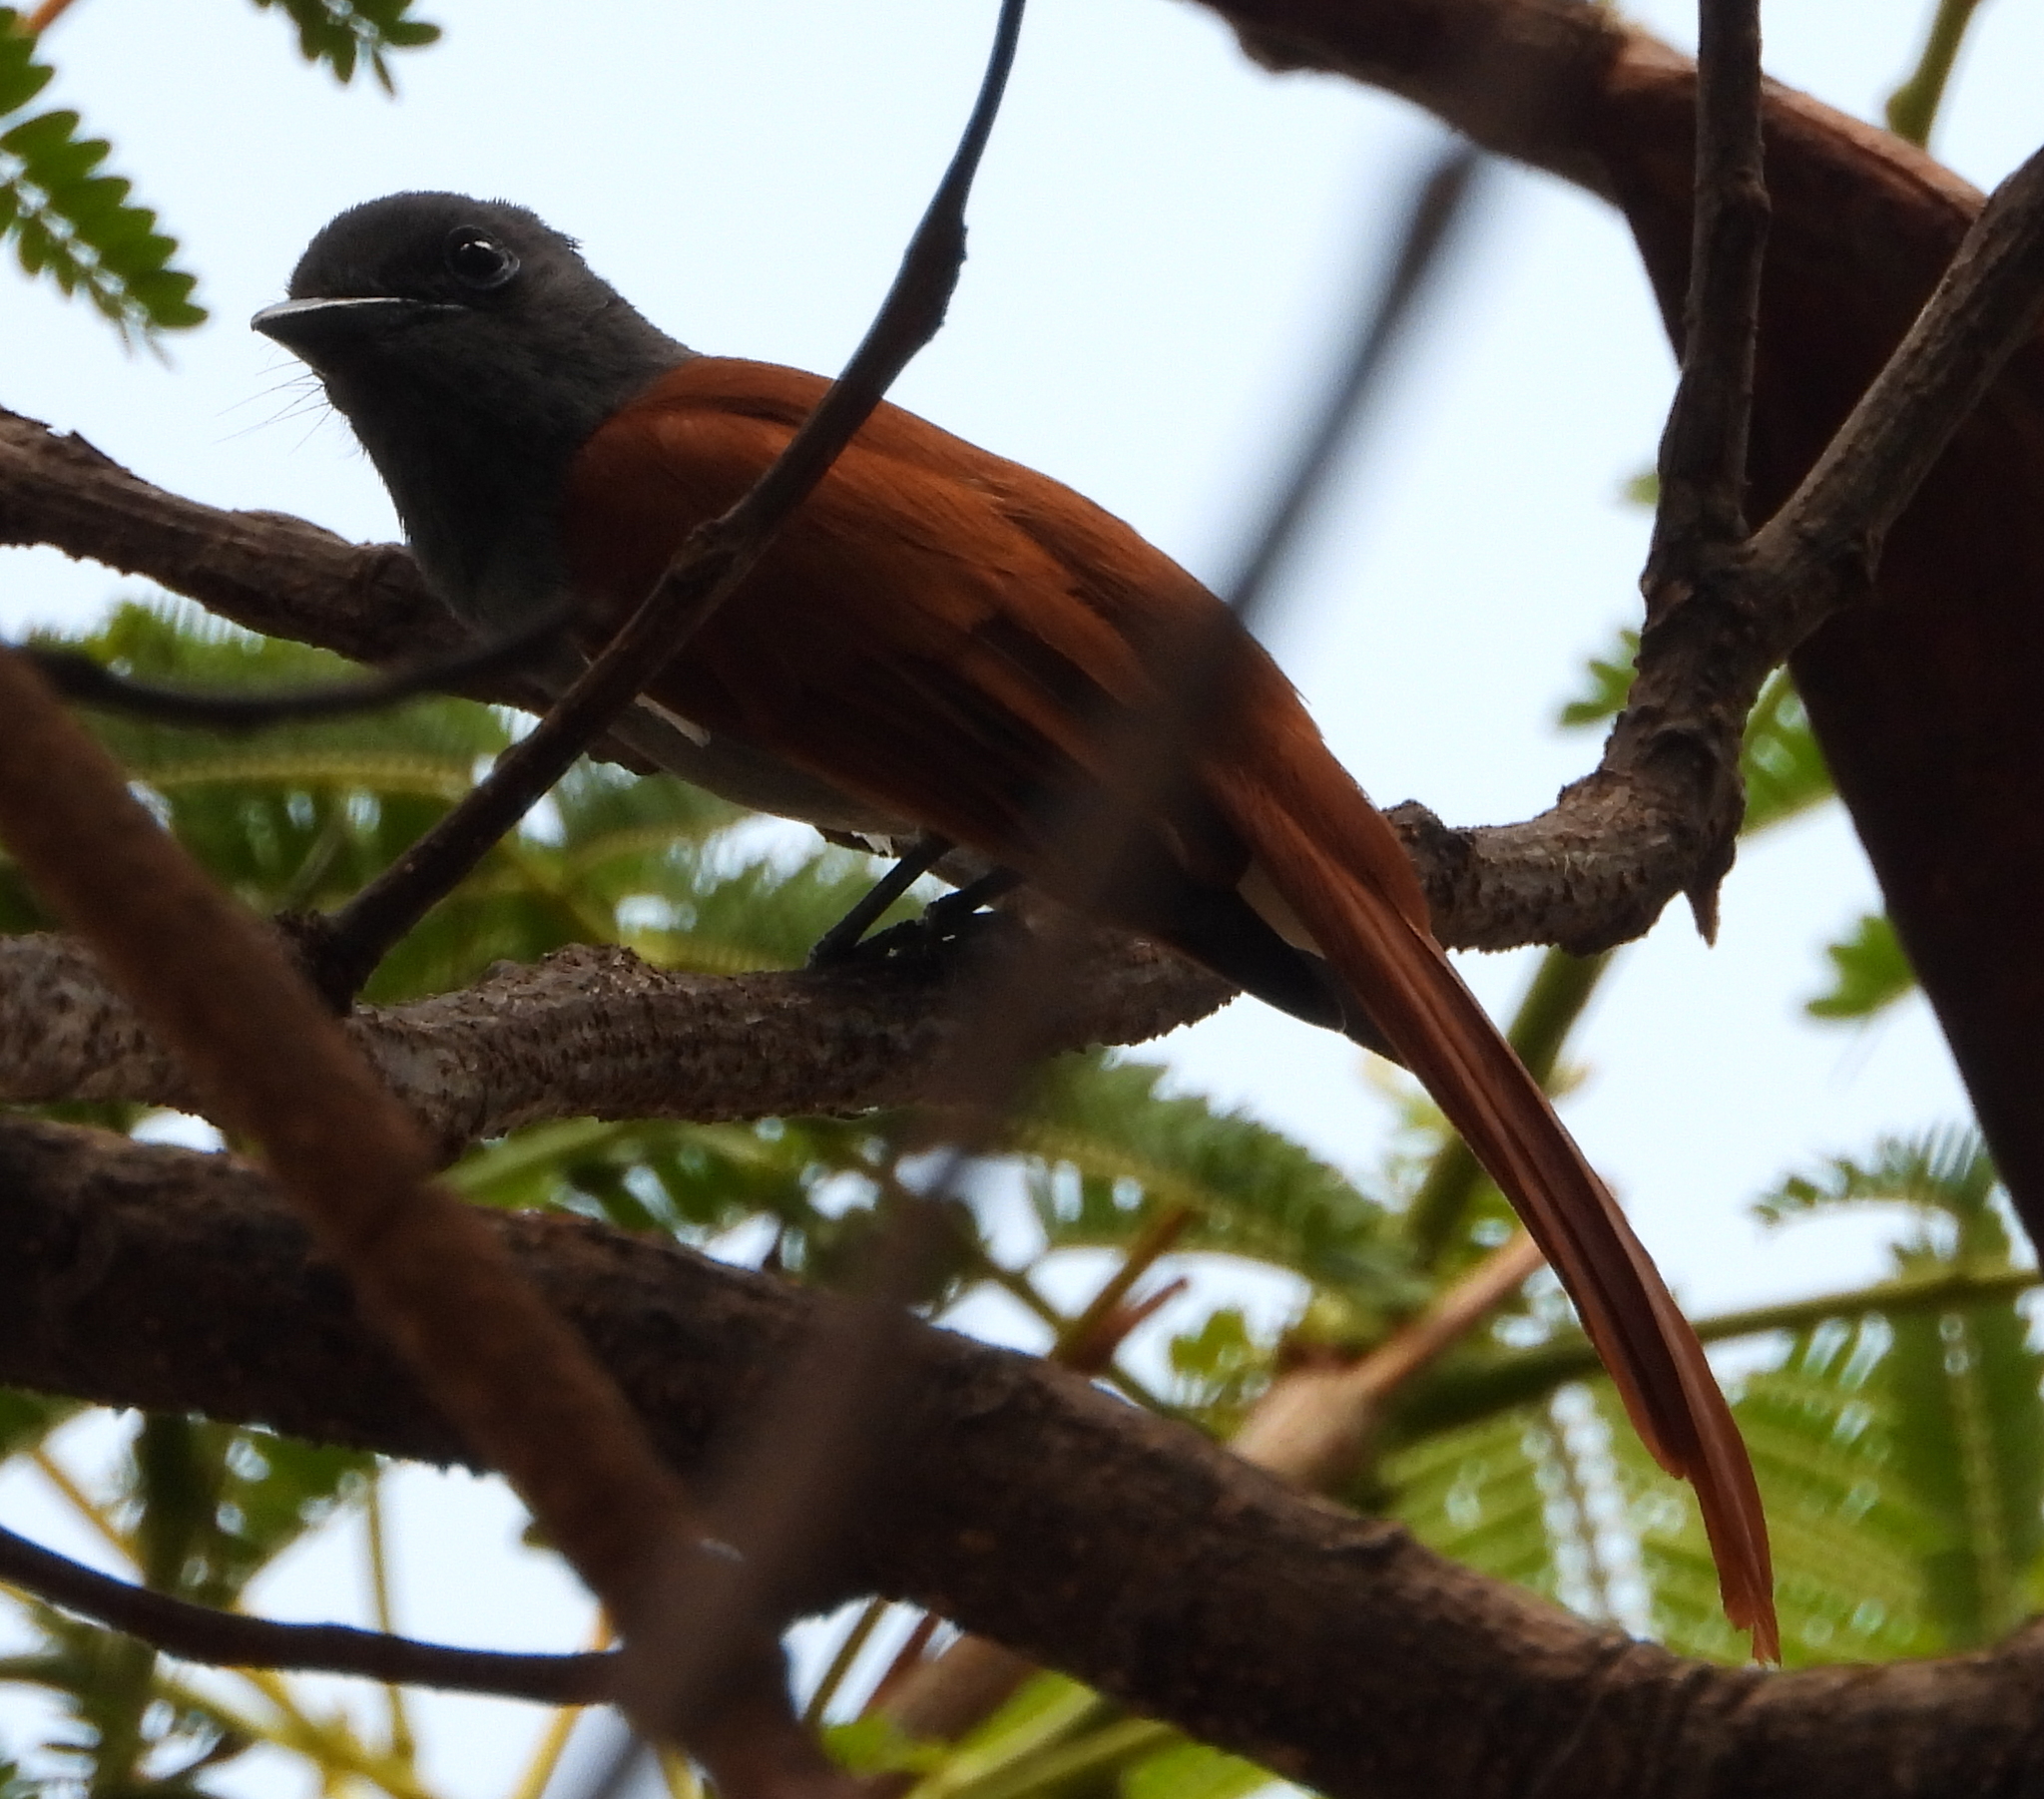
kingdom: Animalia
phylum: Chordata
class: Aves
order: Passeriformes
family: Monarchidae
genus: Terpsiphone
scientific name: Terpsiphone viridis
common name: African paradise flycatcher
